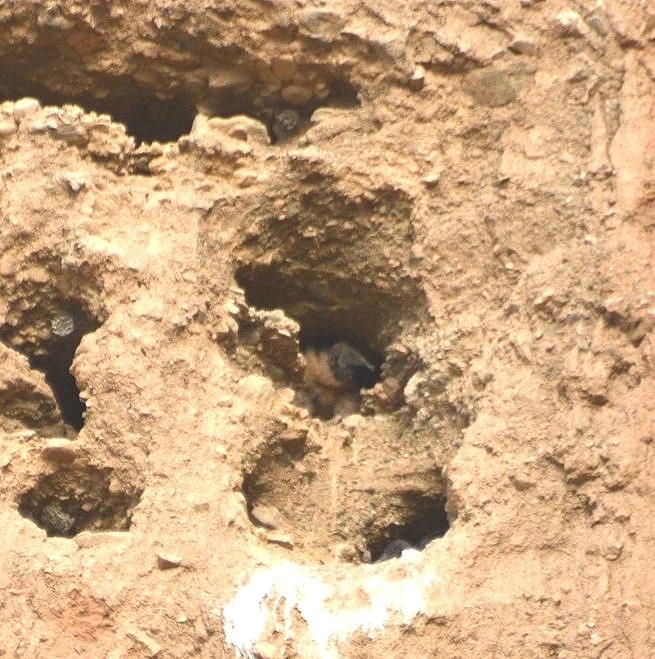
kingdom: Animalia
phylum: Chordata
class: Aves
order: Accipitriformes
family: Cathartidae
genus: Coragyps
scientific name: Coragyps atratus
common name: Black vulture
